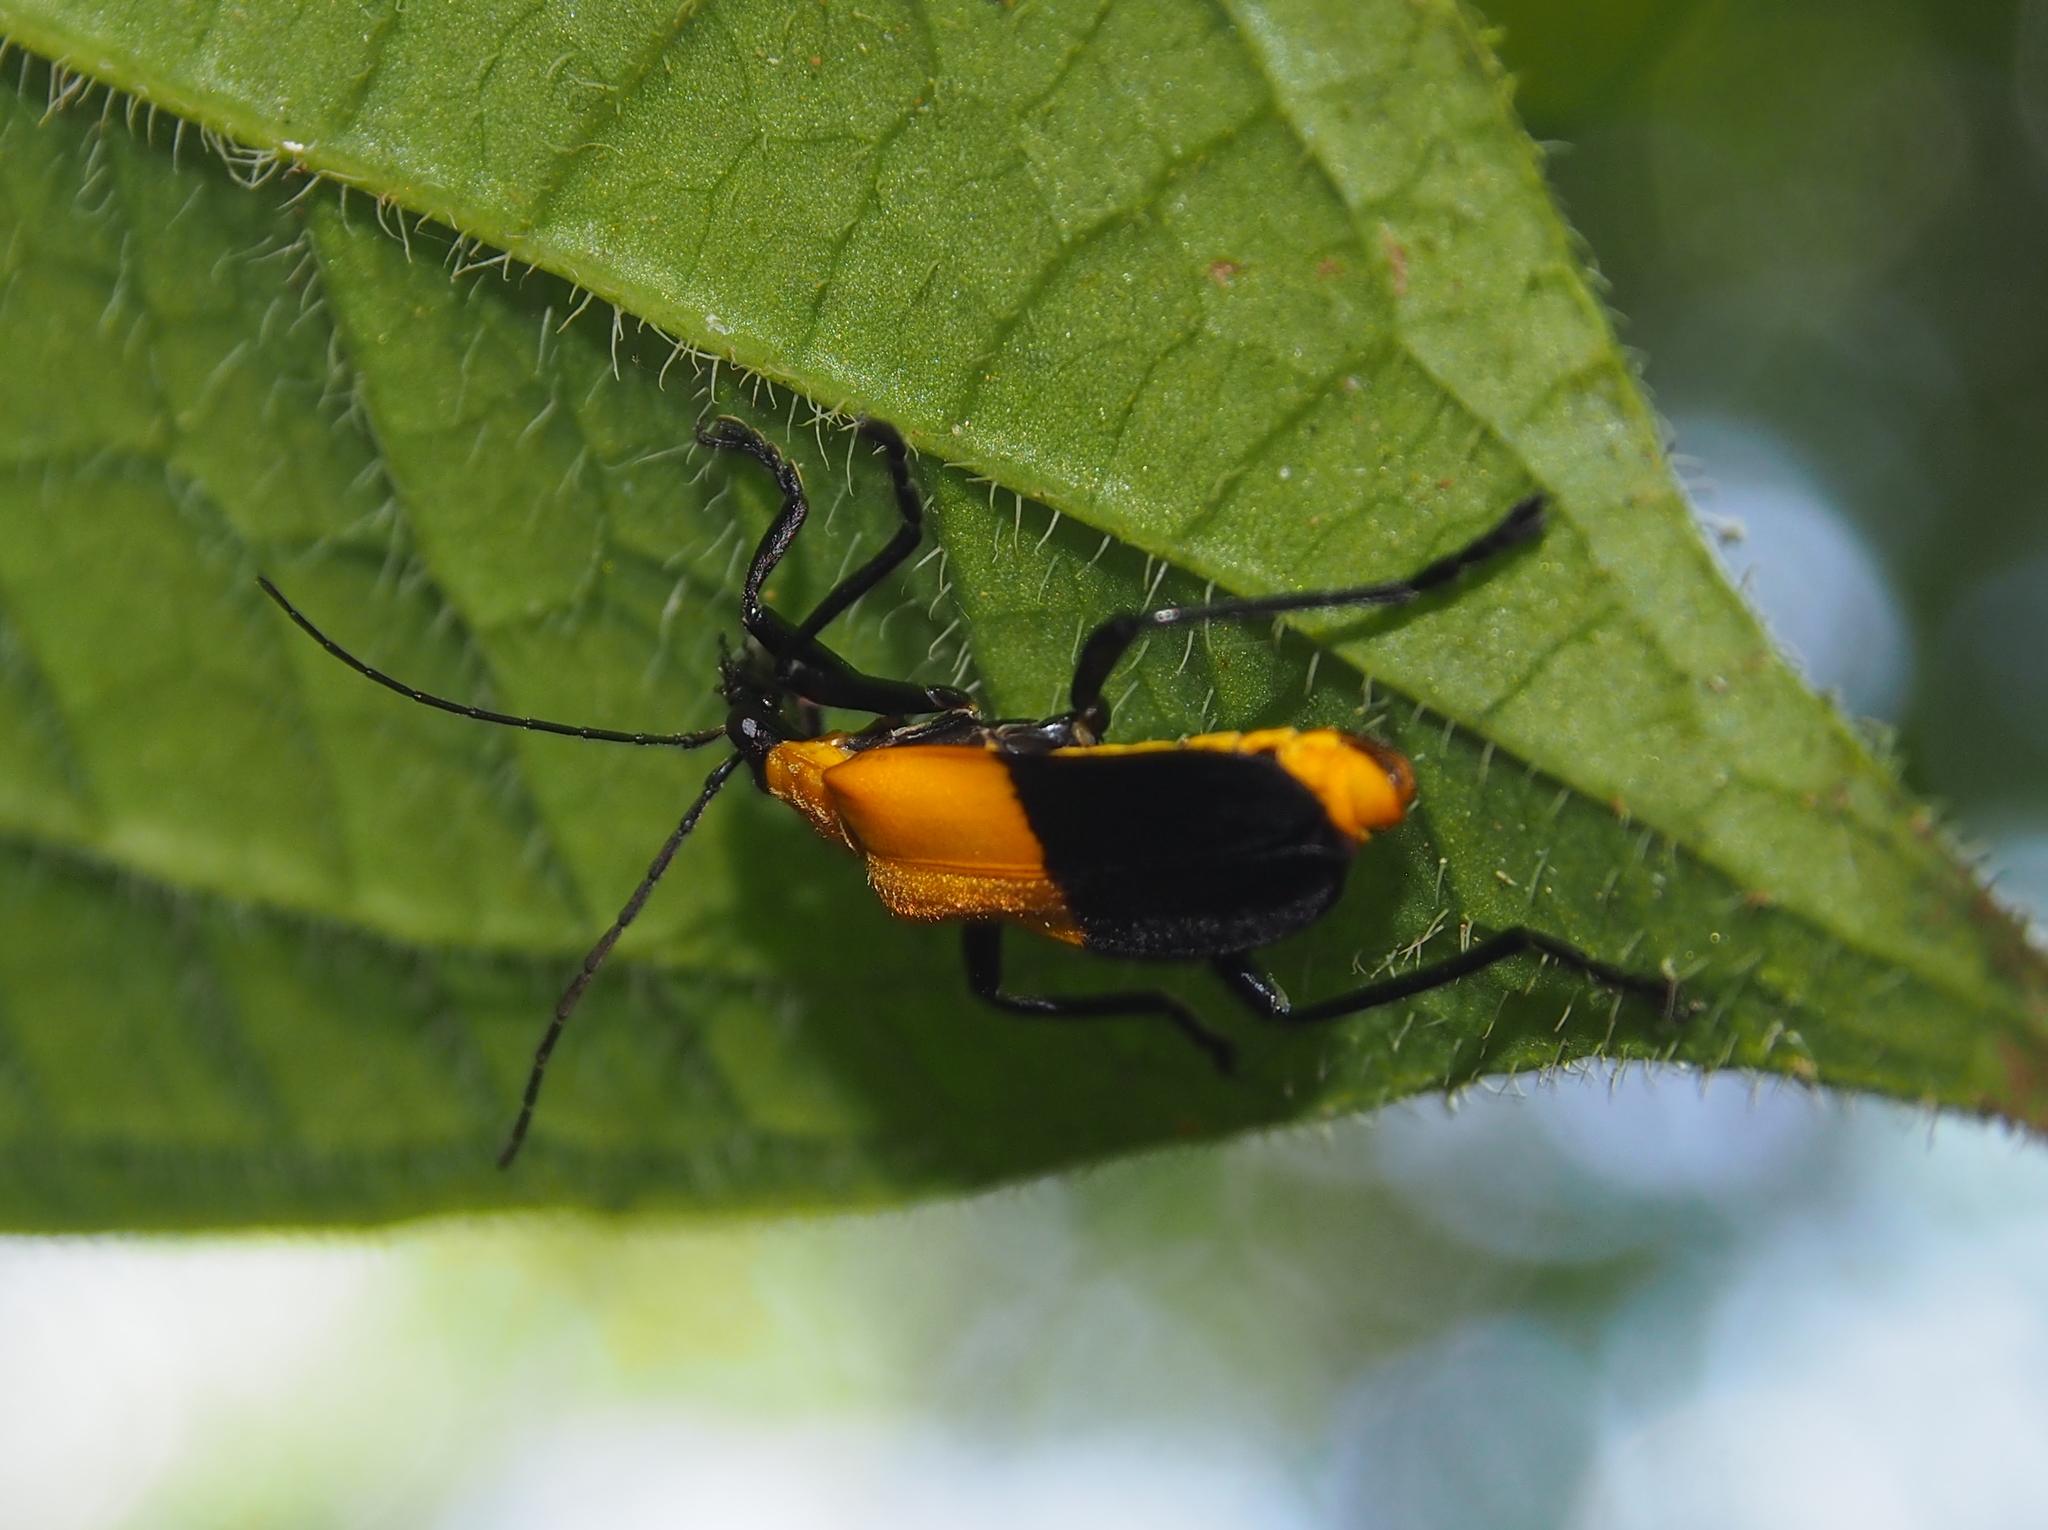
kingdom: Animalia
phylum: Arthropoda
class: Insecta
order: Coleoptera
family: Cantharidae
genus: Chauliognathus
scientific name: Chauliognathus
